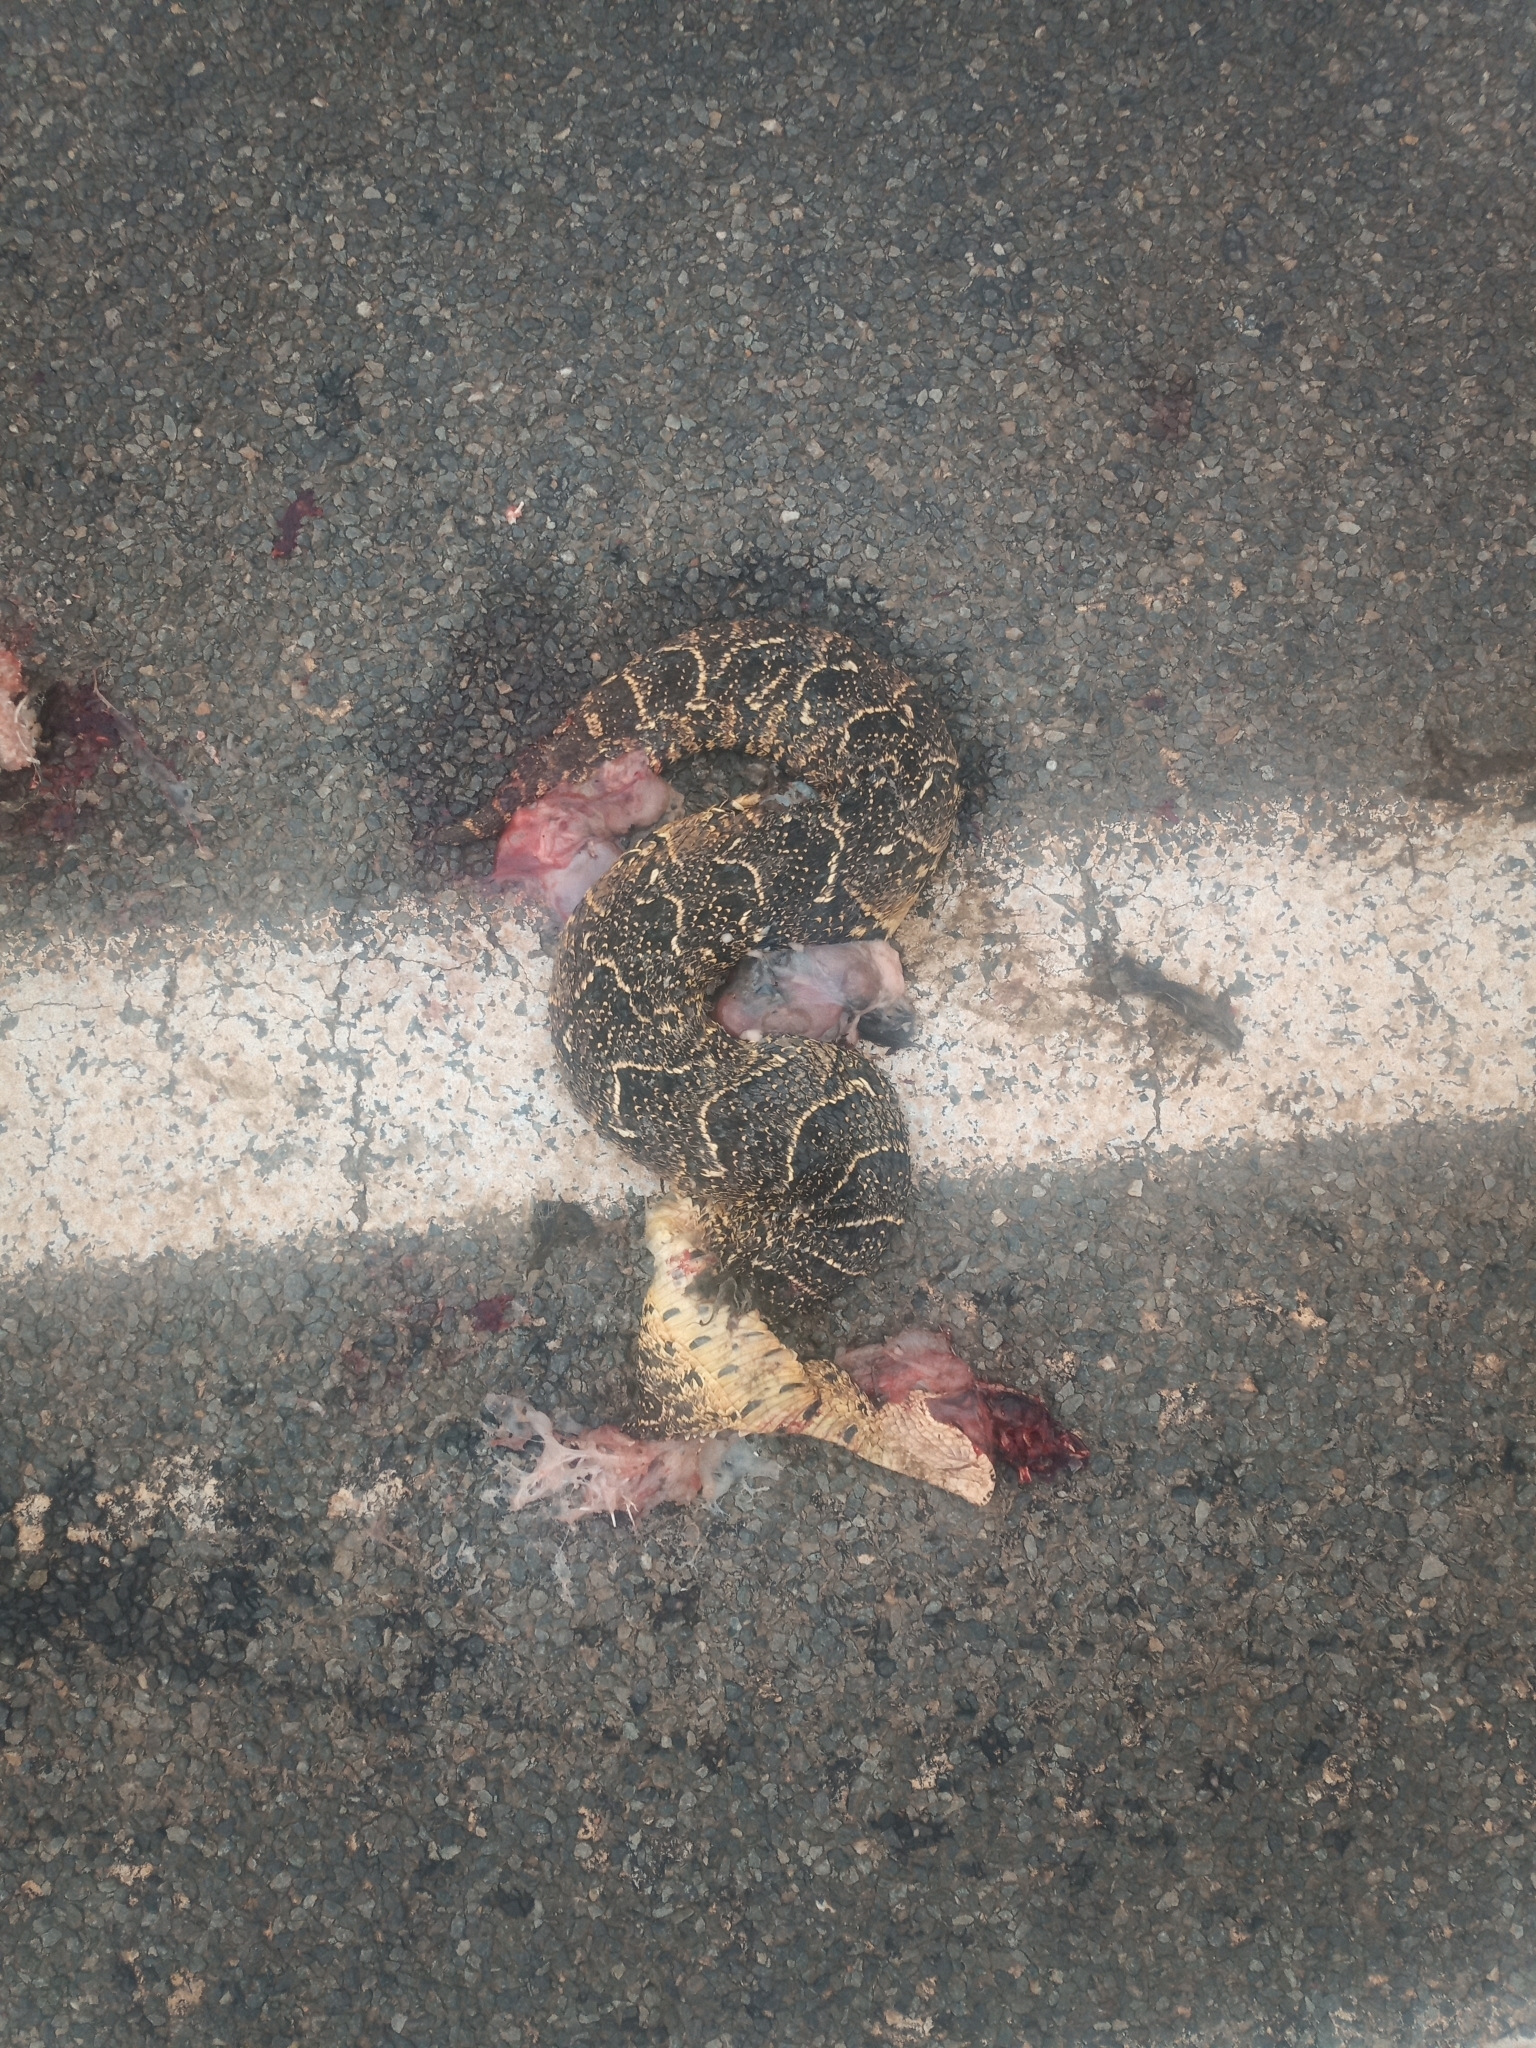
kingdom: Animalia
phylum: Chordata
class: Squamata
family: Viperidae
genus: Bitis
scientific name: Bitis arietans
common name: Puff adder
